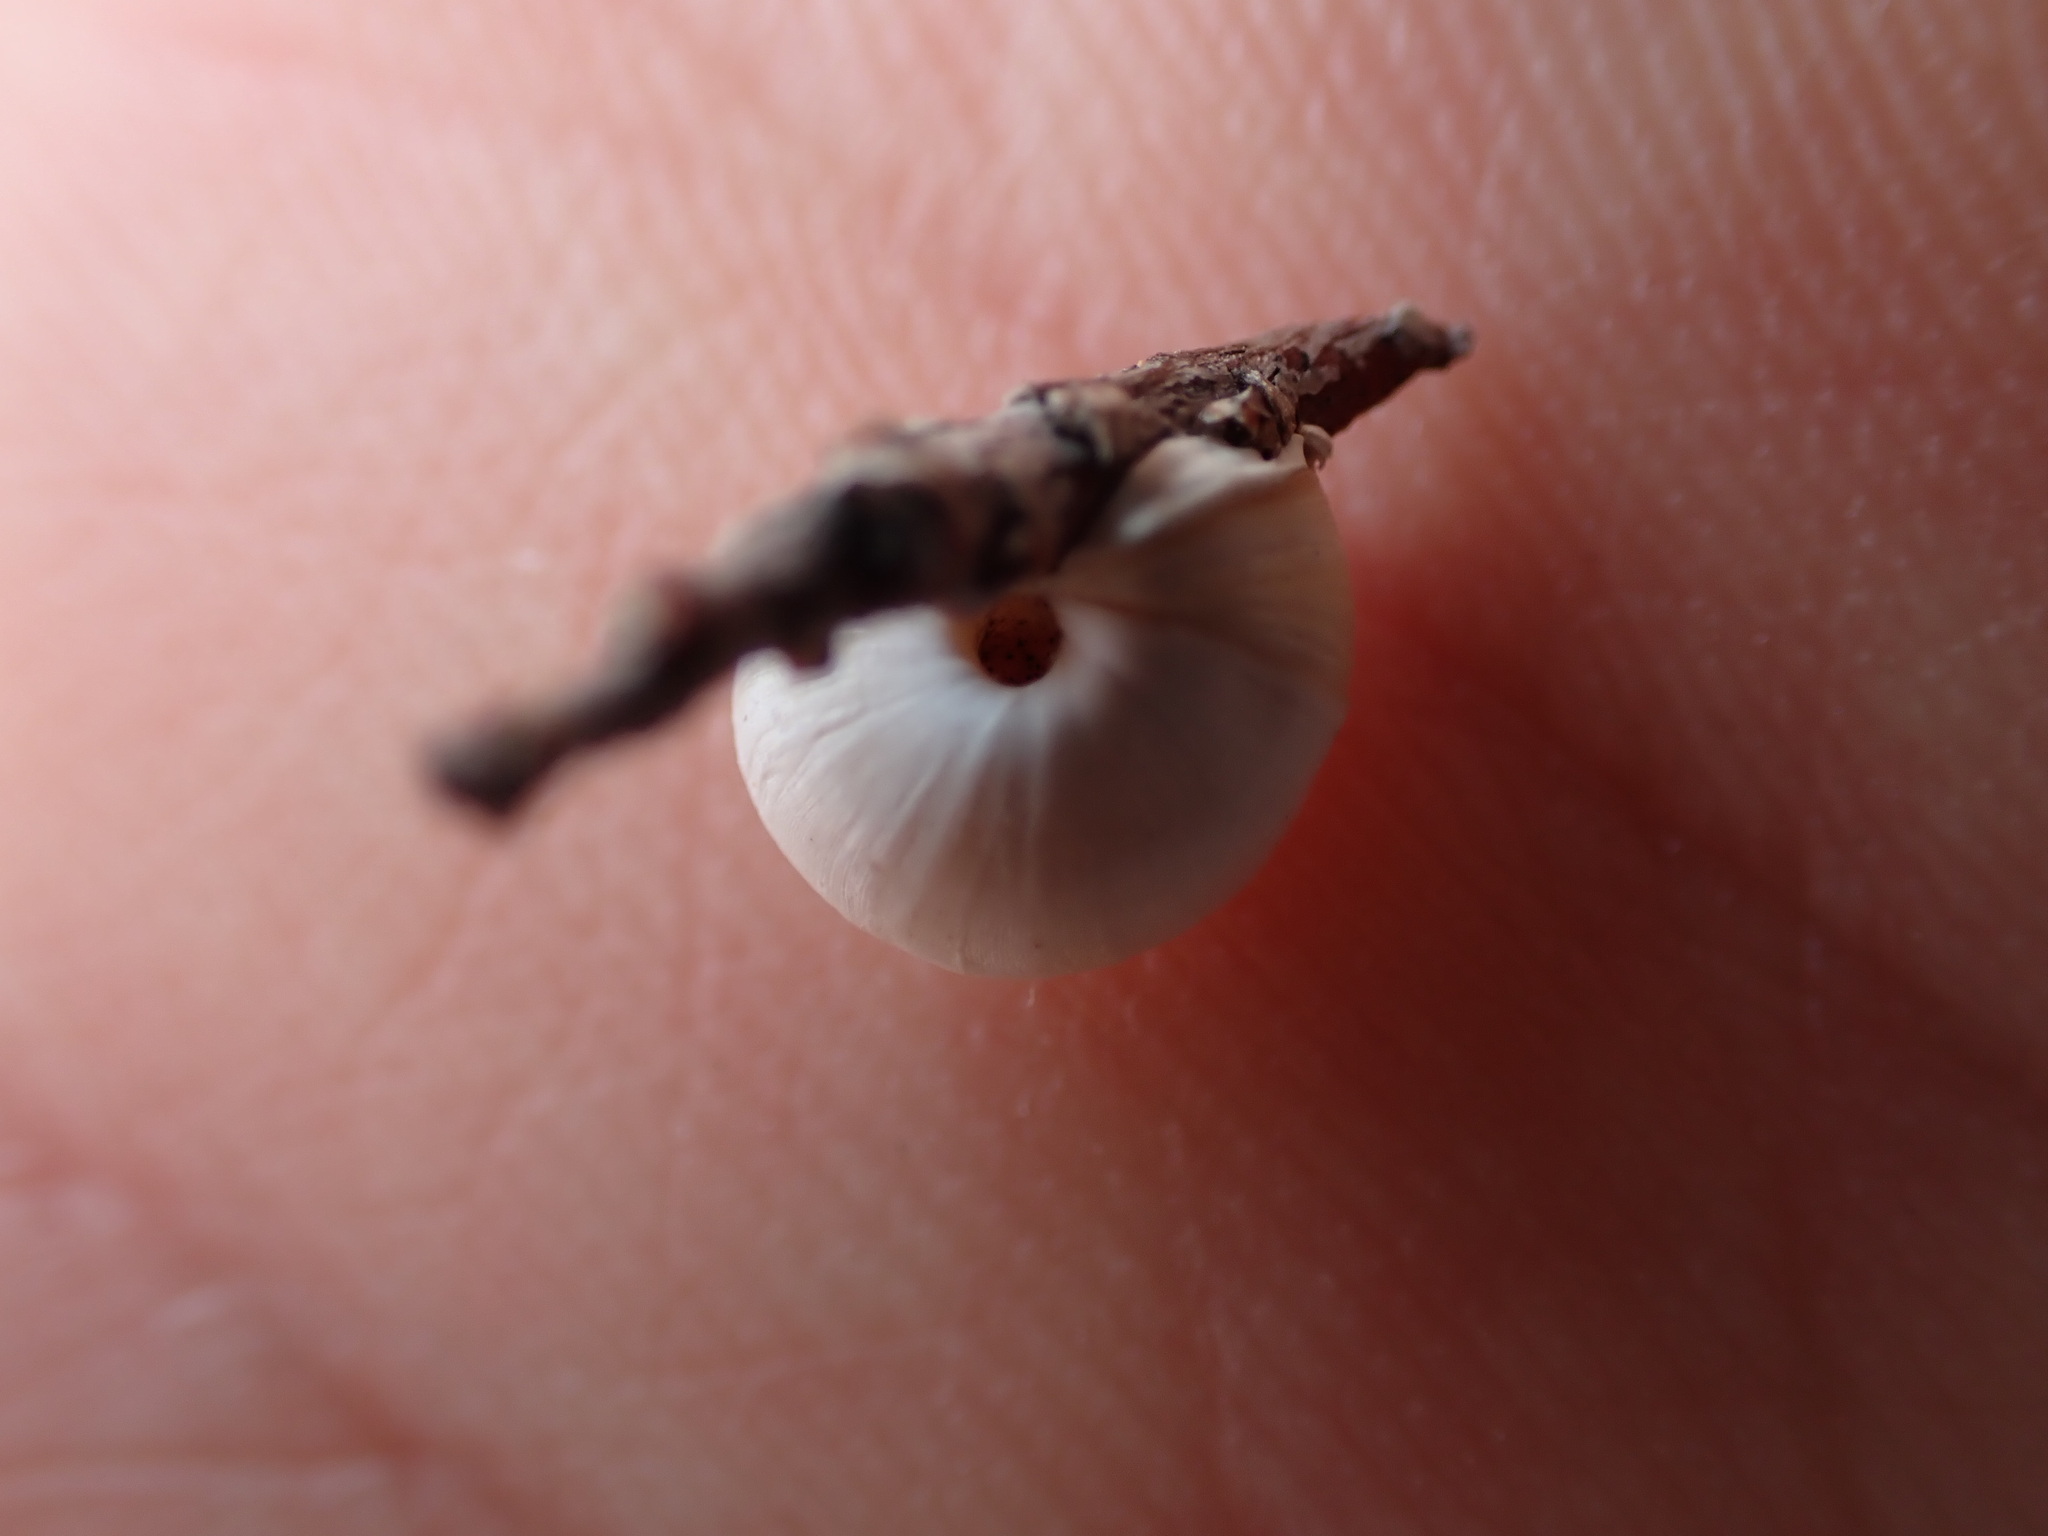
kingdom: Animalia
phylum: Mollusca
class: Gastropoda
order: Stylommatophora
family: Helicidae
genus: Theba
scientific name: Theba pisana
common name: White snail
